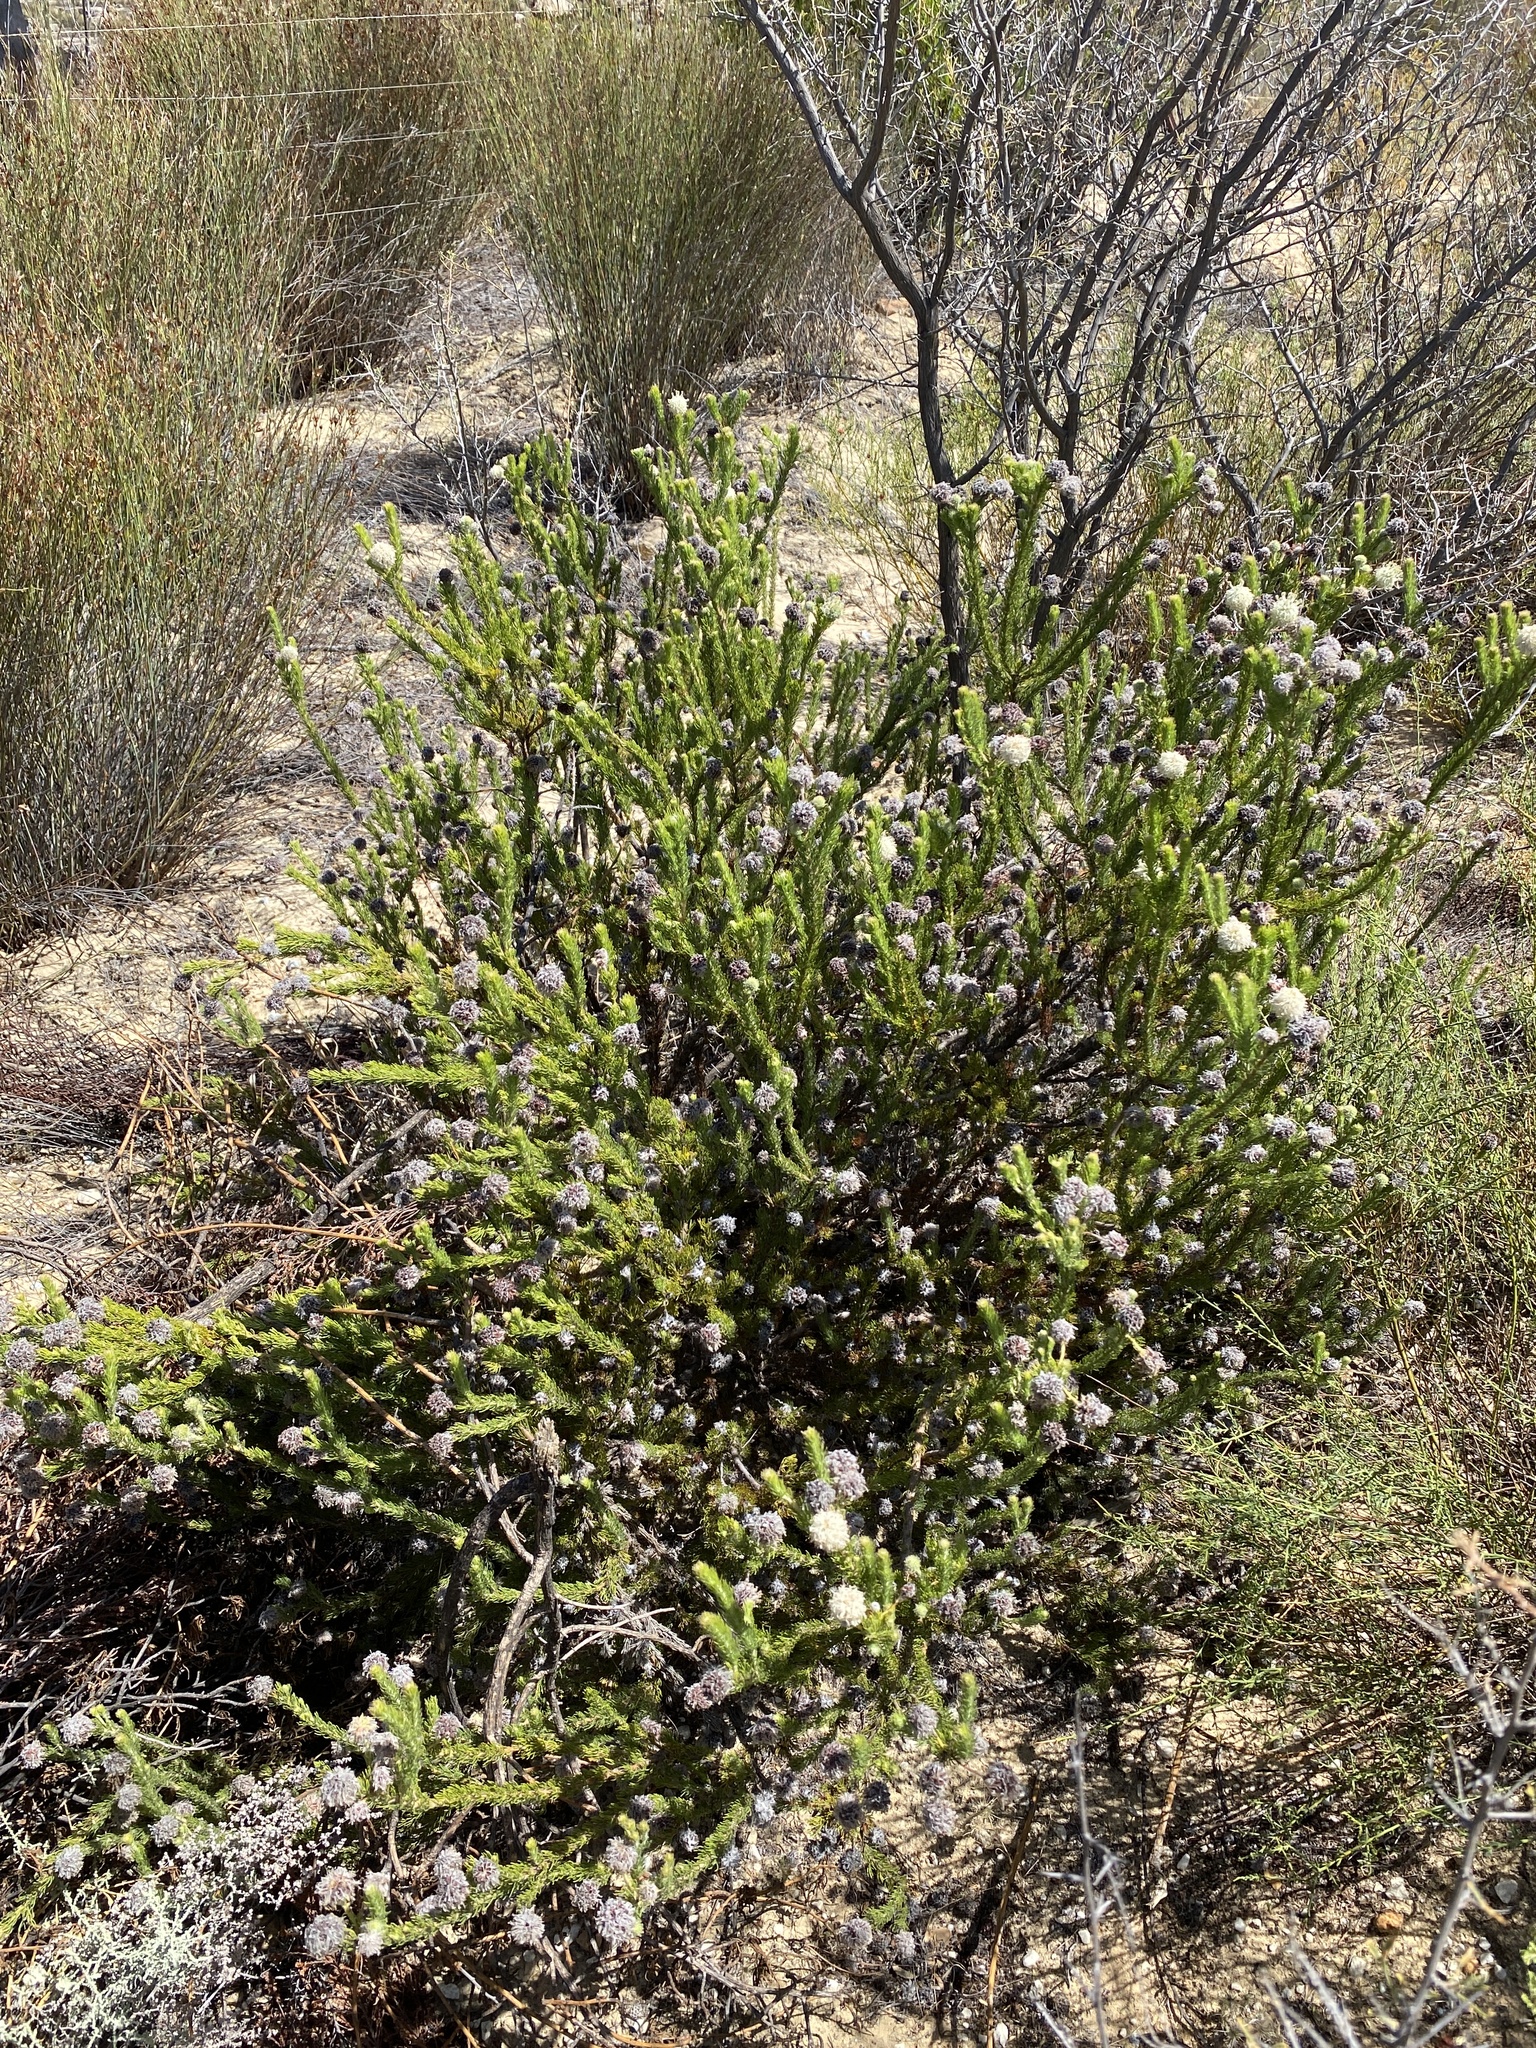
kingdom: Plantae
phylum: Tracheophyta
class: Magnoliopsida
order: Proteales
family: Proteaceae
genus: Serruria
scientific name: Serruria millefolia
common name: Millileaf spiderhead
